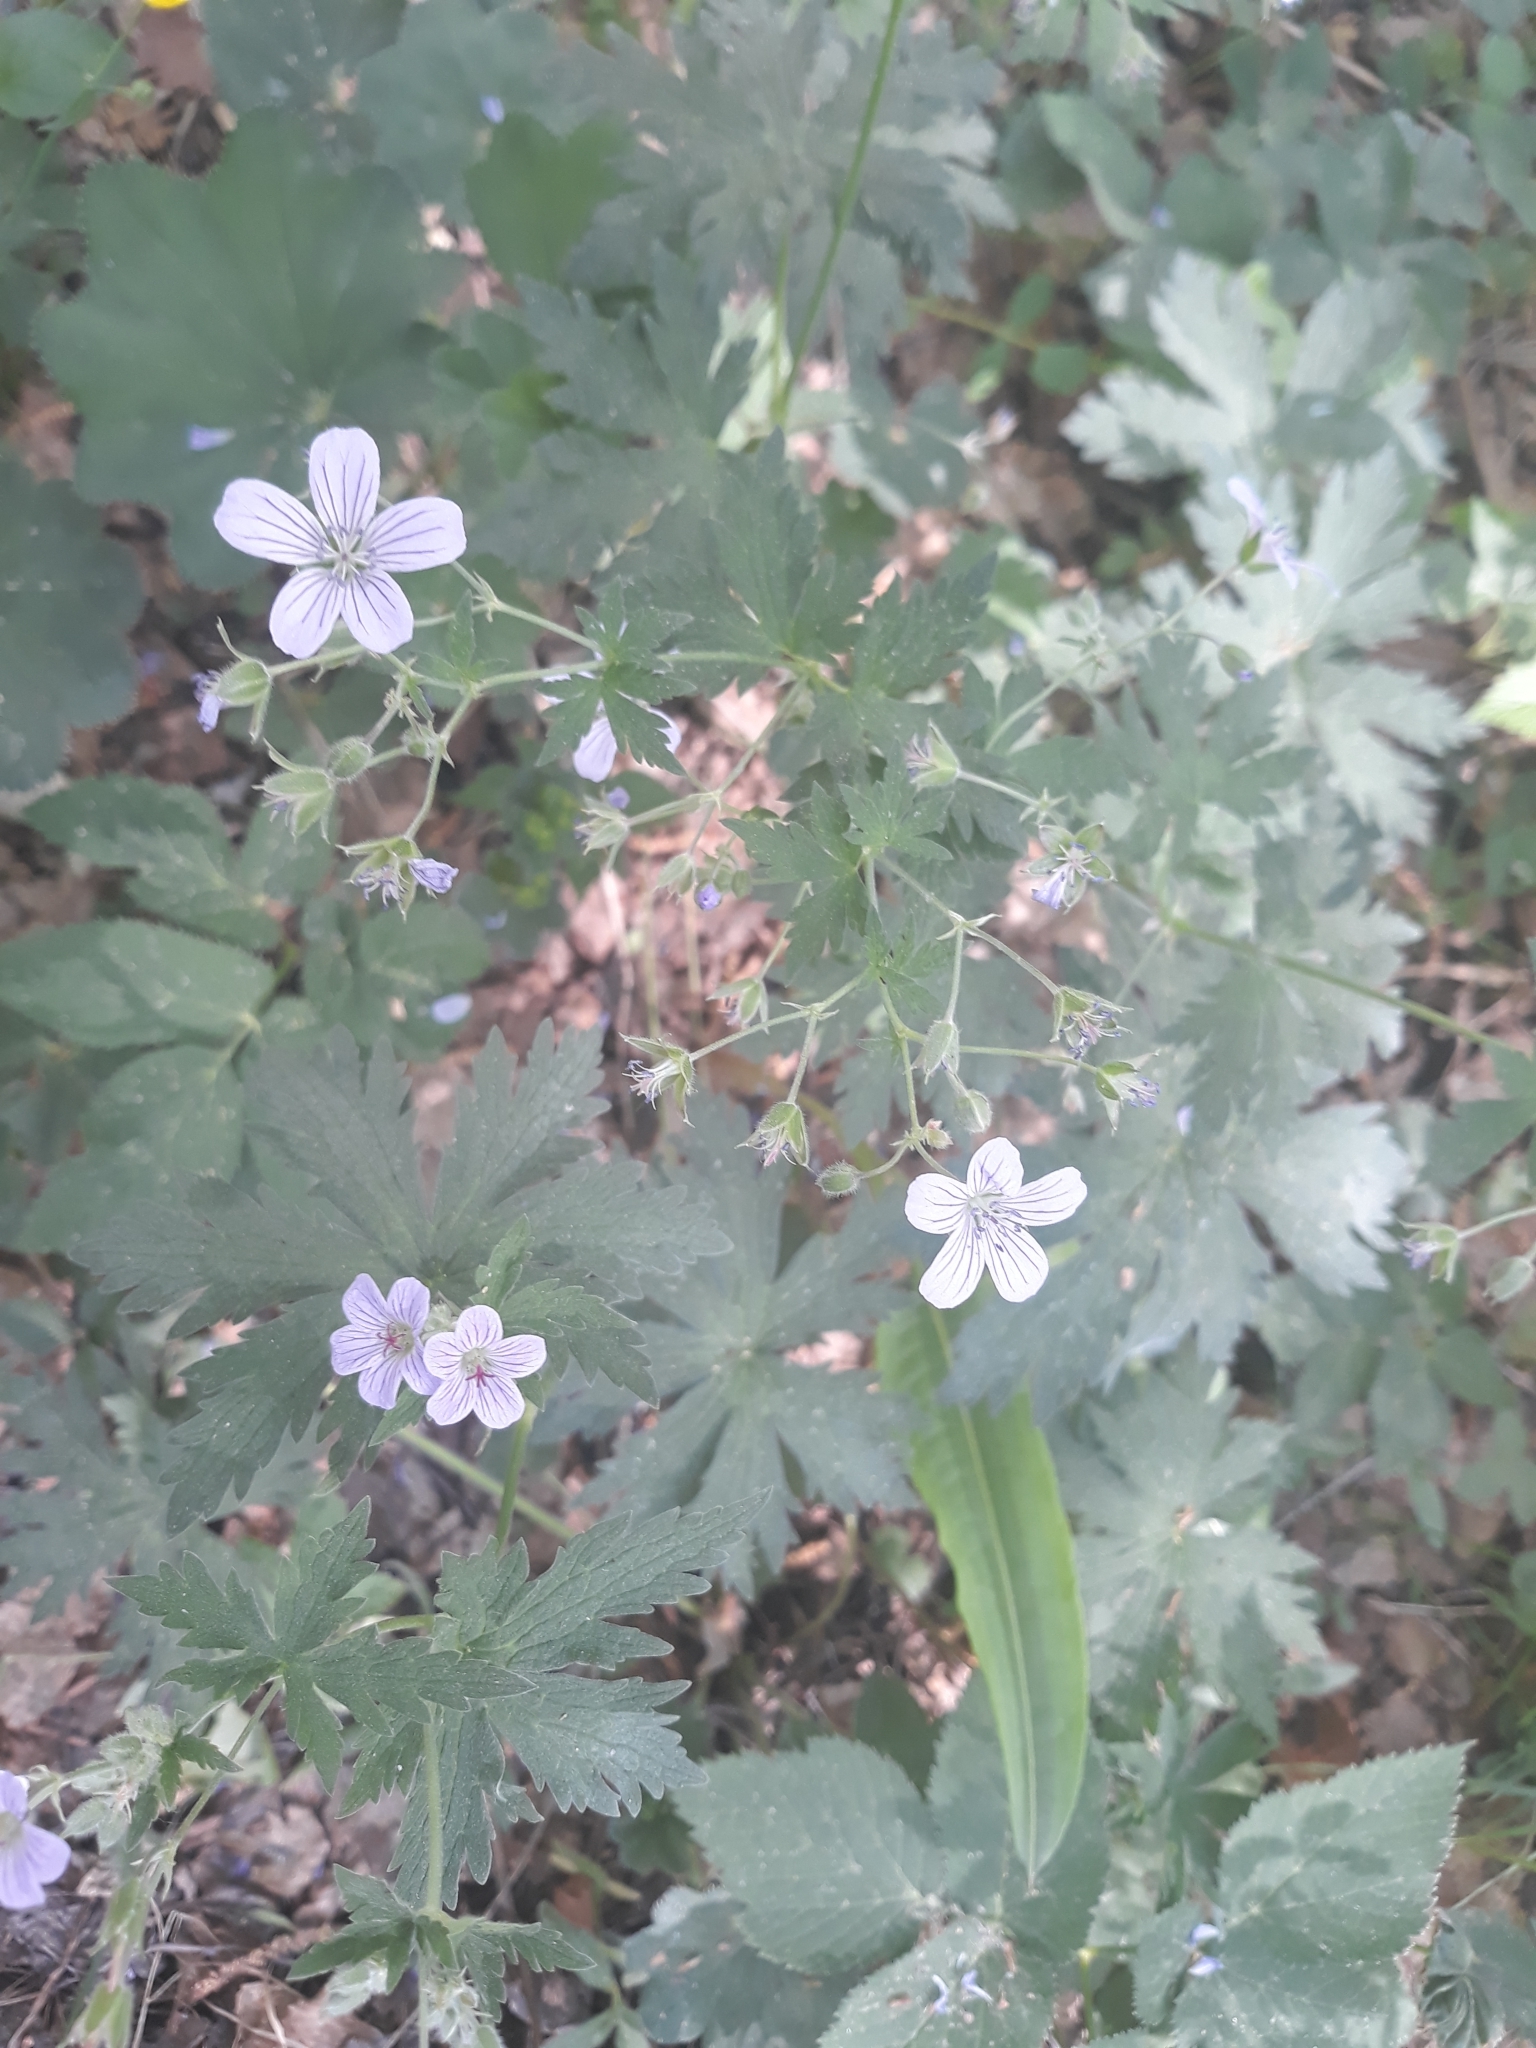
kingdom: Plantae
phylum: Tracheophyta
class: Magnoliopsida
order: Geraniales
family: Geraniaceae
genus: Geranium
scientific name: Geranium pseudosibiricum
